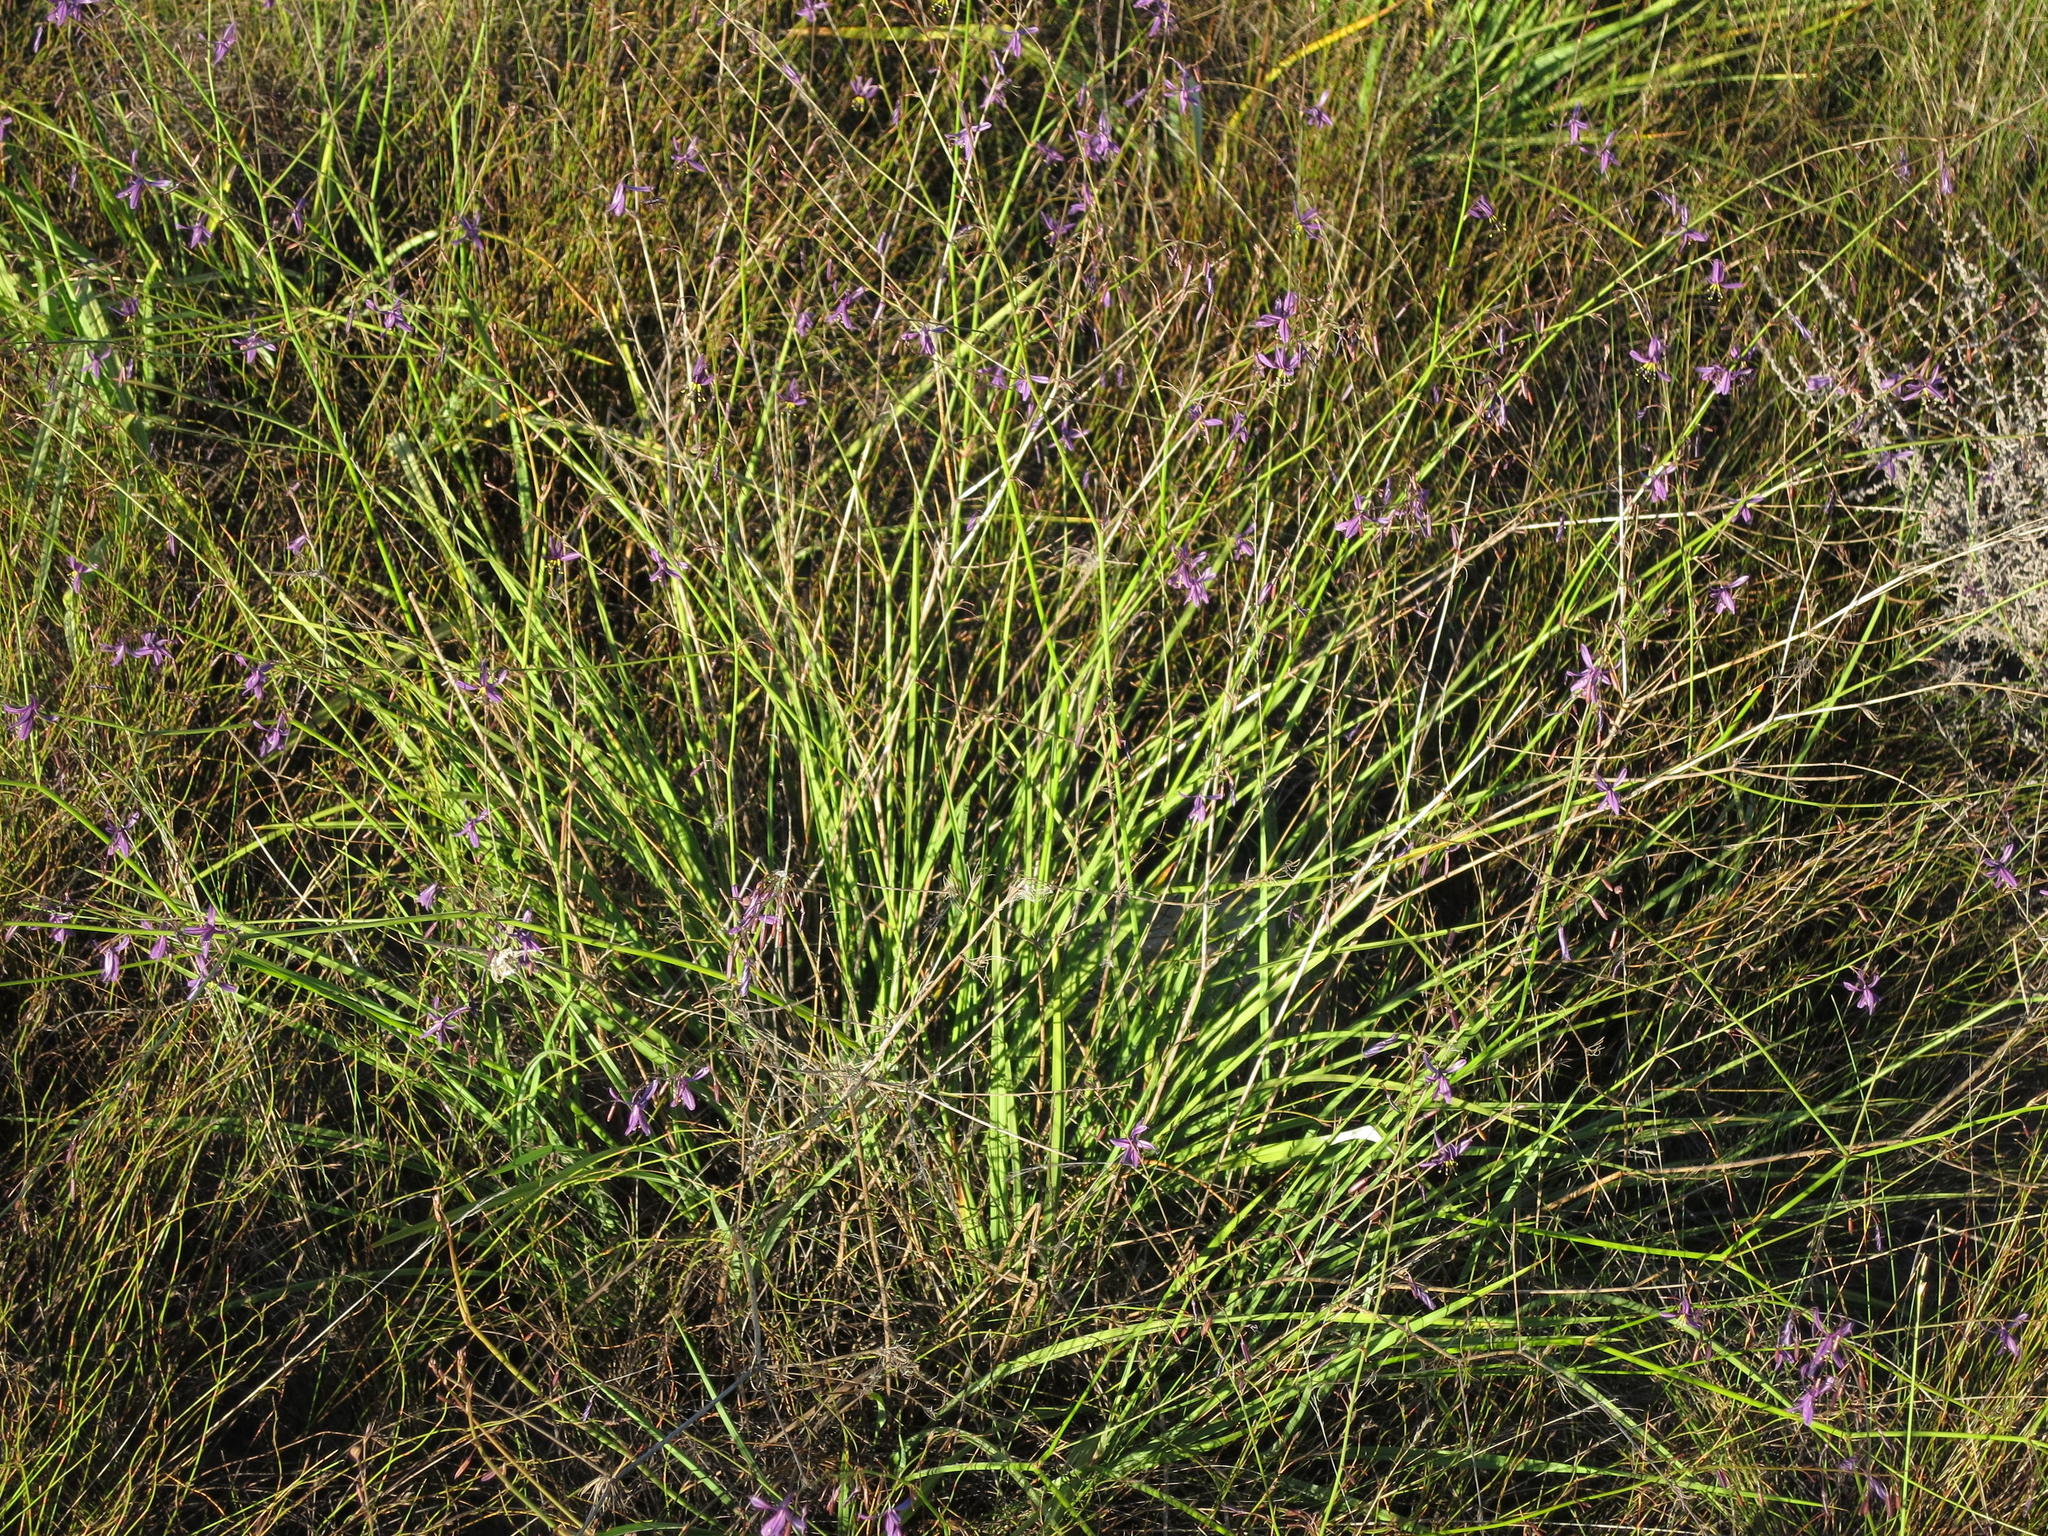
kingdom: Plantae
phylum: Tracheophyta
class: Liliopsida
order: Asparagales
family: Asphodelaceae
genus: Caesia
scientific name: Caesia sabulosa
